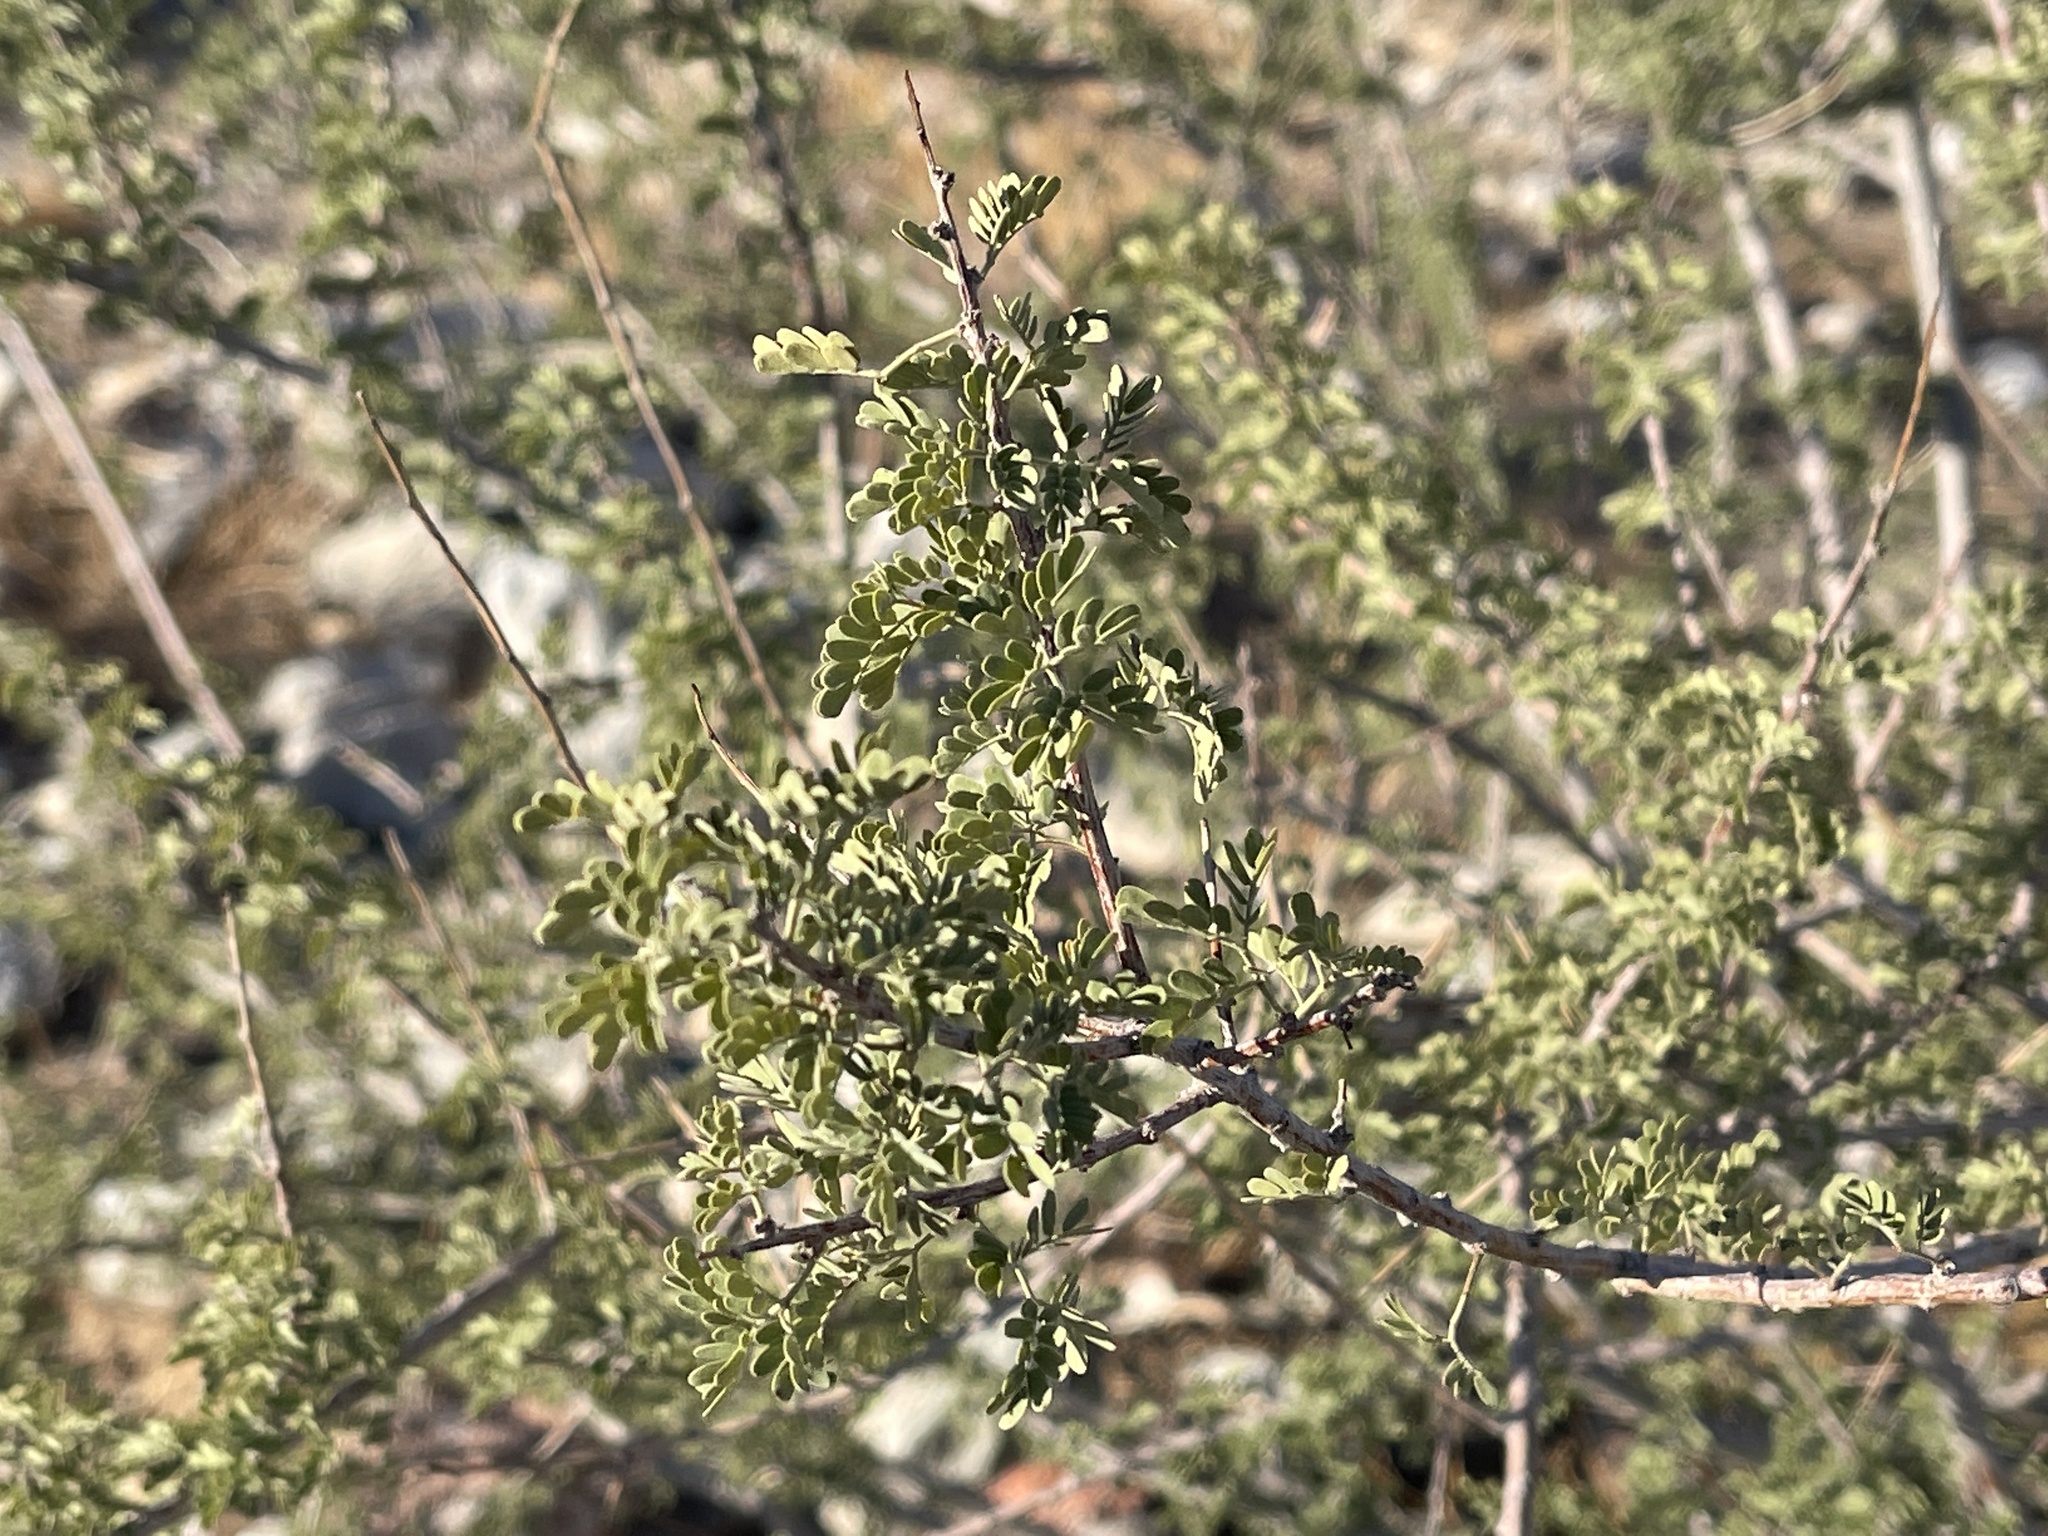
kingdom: Plantae
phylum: Tracheophyta
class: Magnoliopsida
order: Fabales
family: Fabaceae
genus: Senegalia
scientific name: Senegalia greggii
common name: Texas-mimosa
